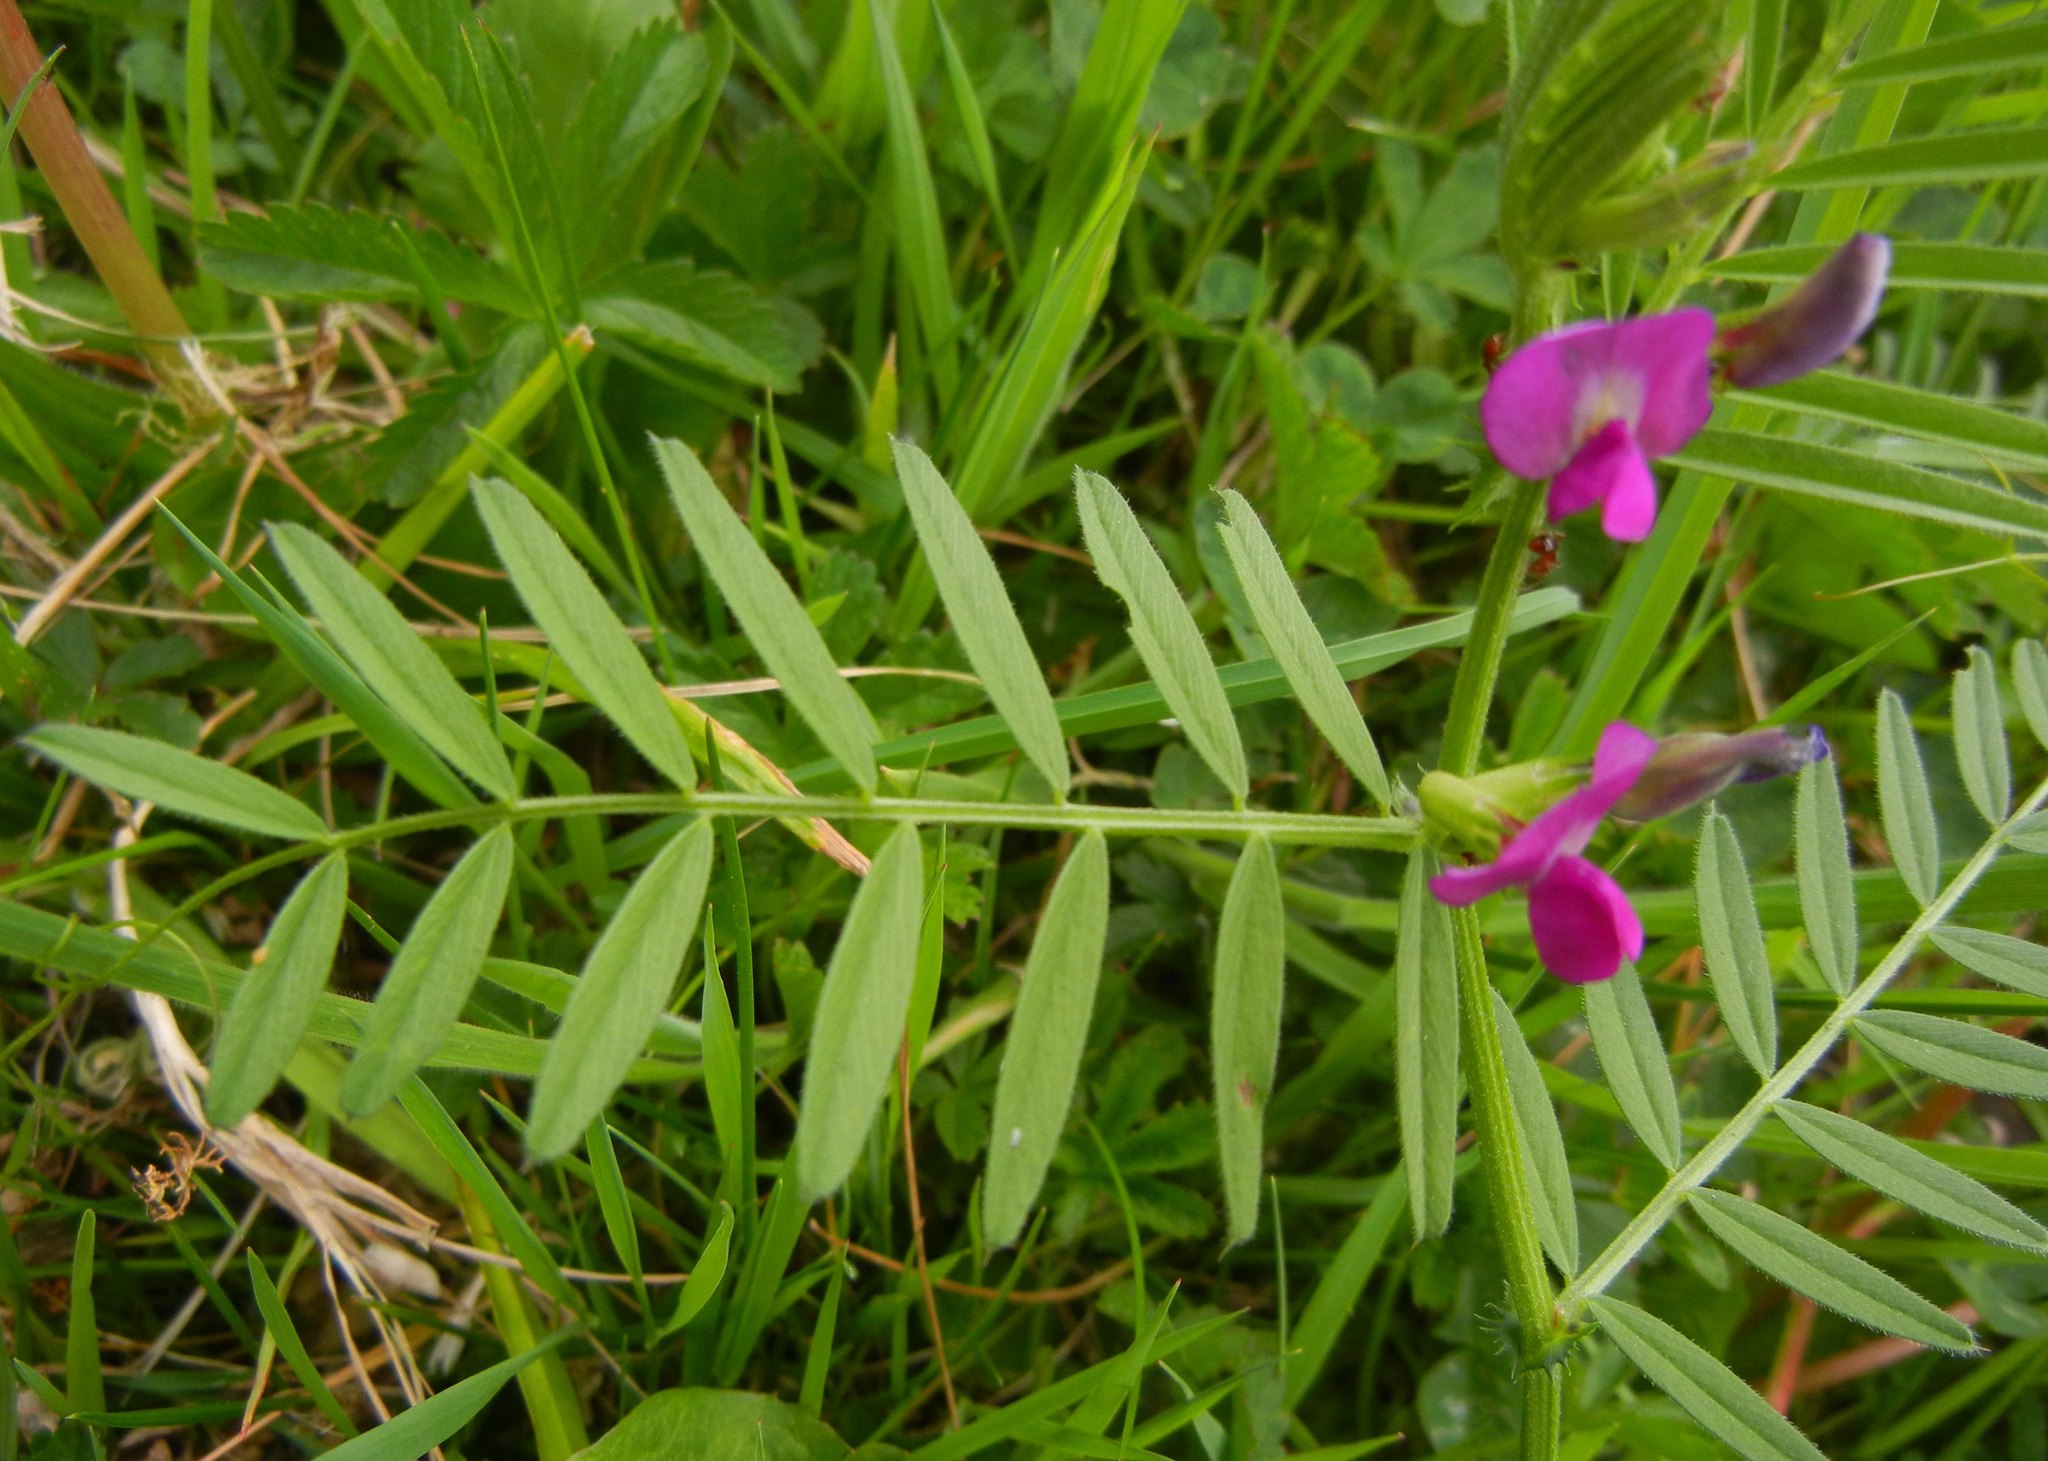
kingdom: Plantae
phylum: Tracheophyta
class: Magnoliopsida
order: Fabales
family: Fabaceae
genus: Vicia
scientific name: Vicia sativa
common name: Garden vetch
